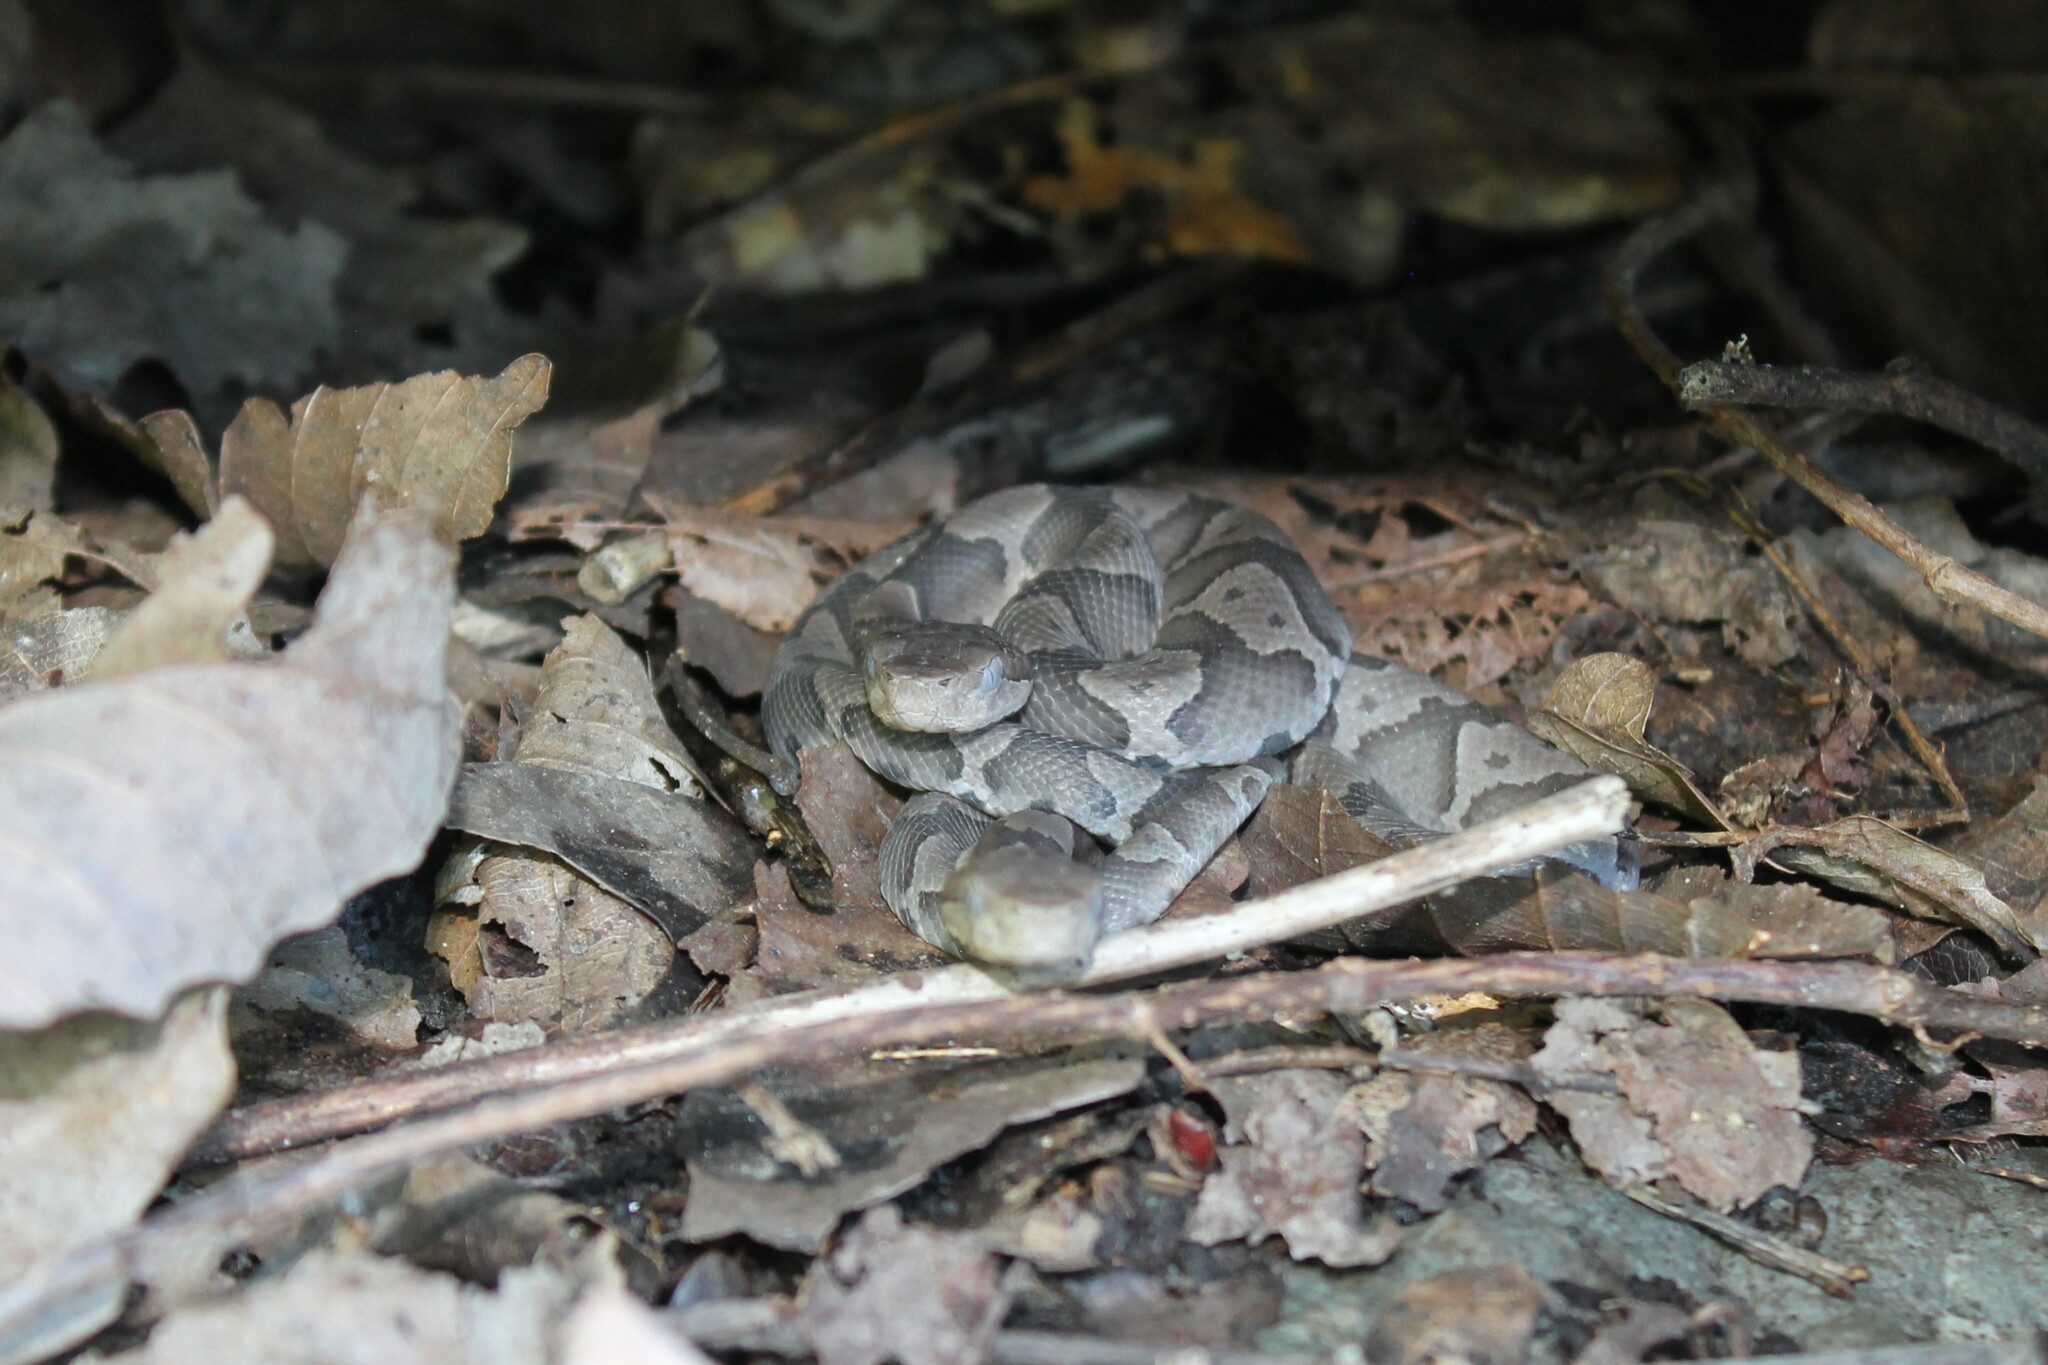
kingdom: Animalia
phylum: Chordata
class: Squamata
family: Viperidae
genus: Agkistrodon
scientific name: Agkistrodon contortrix
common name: Northern copperhead
